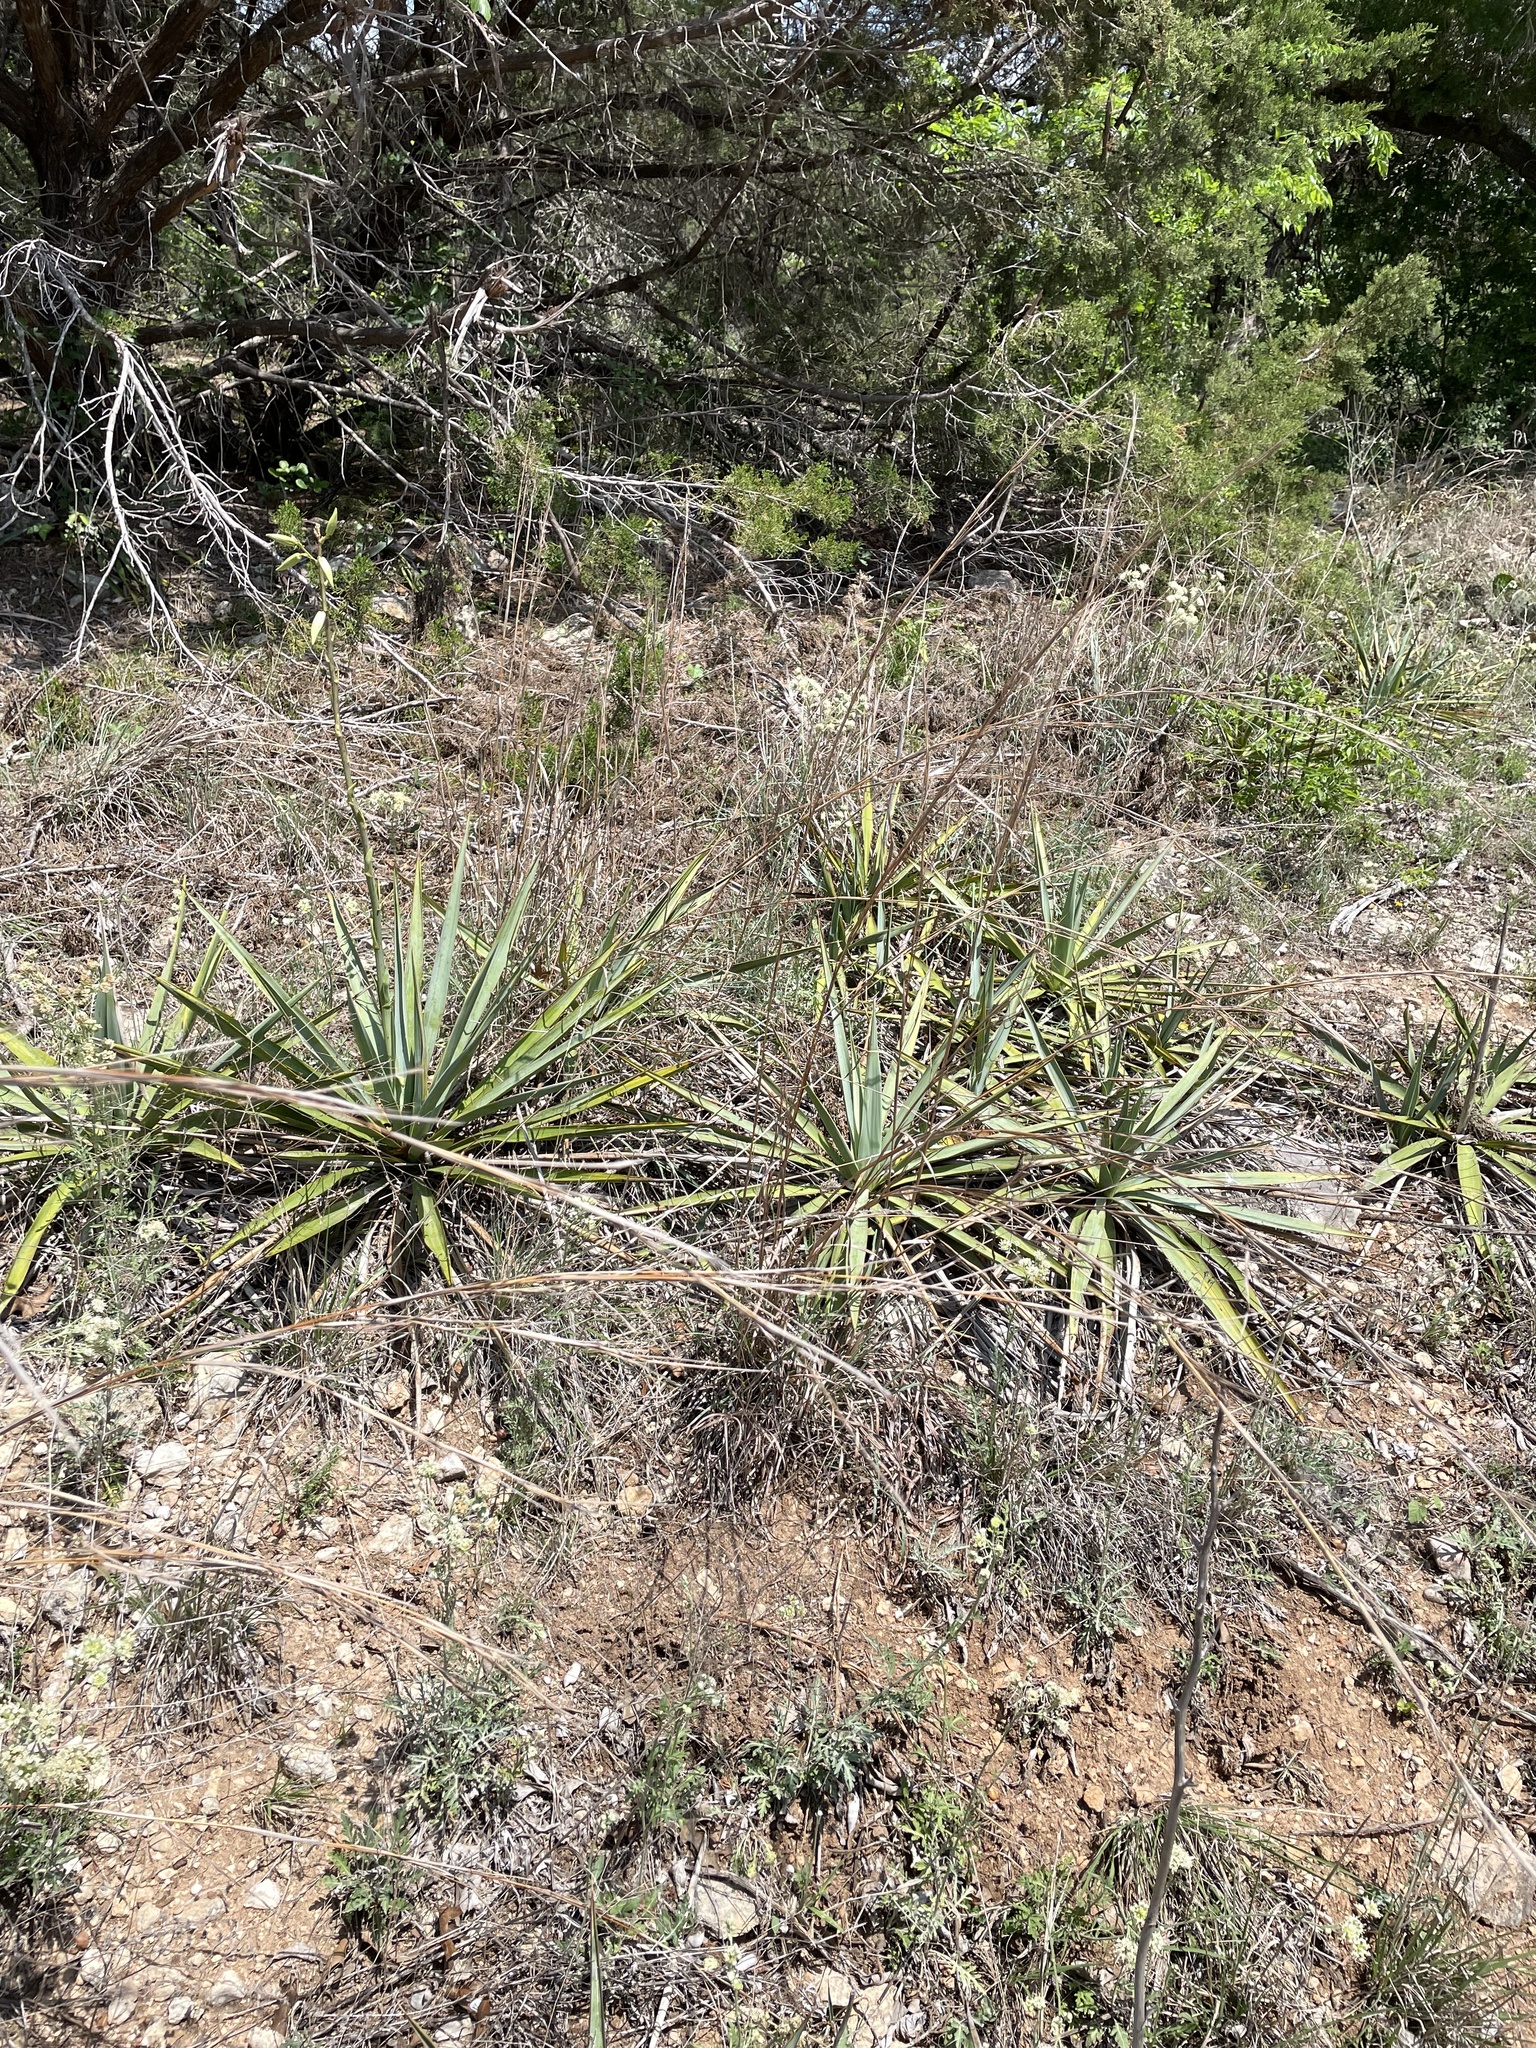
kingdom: Plantae
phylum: Tracheophyta
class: Liliopsida
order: Asparagales
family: Asparagaceae
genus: Yucca
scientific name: Yucca pallida
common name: Pale leaf yucca
